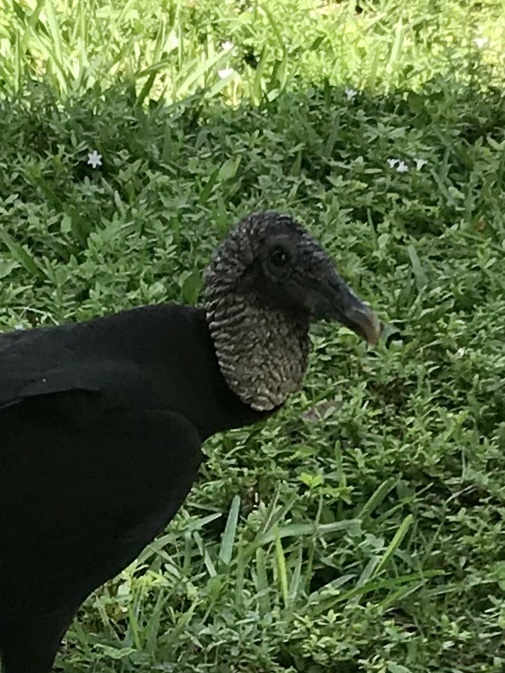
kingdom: Animalia
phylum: Chordata
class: Aves
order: Accipitriformes
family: Cathartidae
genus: Coragyps
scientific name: Coragyps atratus
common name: Black vulture
